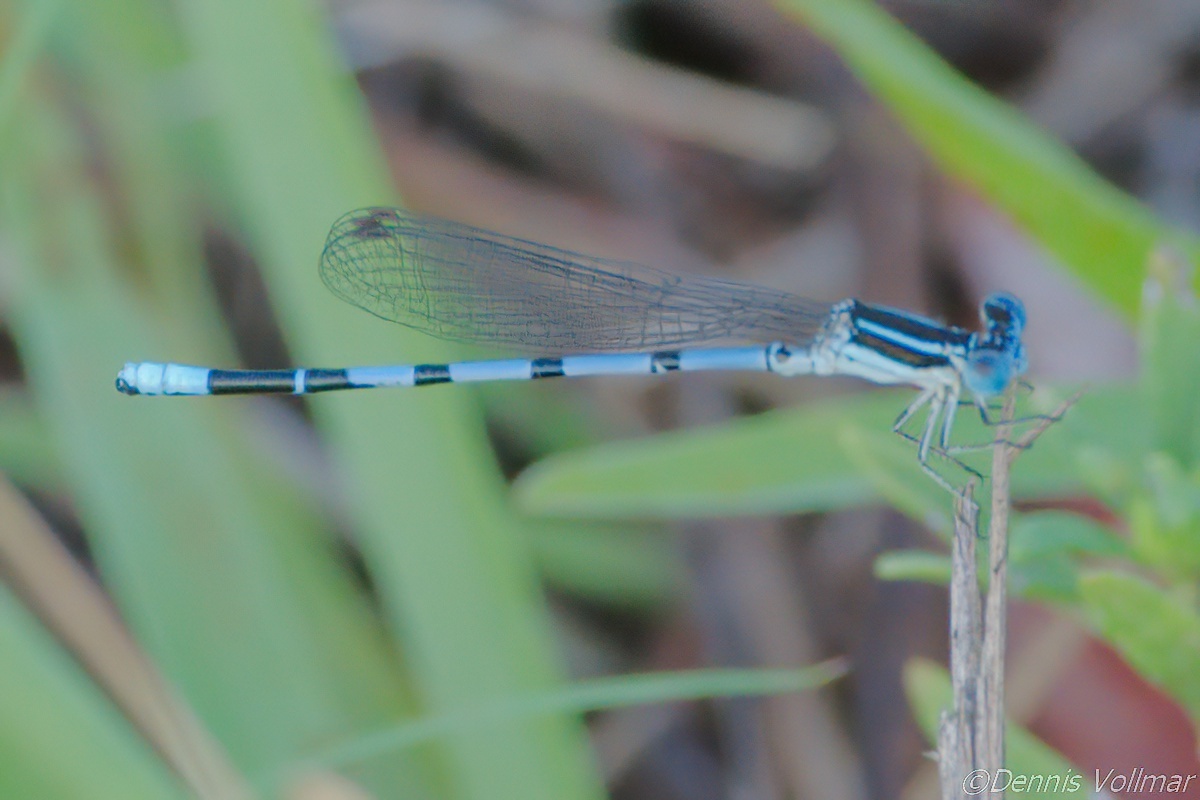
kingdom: Animalia
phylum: Arthropoda
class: Insecta
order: Odonata
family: Coenagrionidae
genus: Argia
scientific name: Argia bipunctulata
